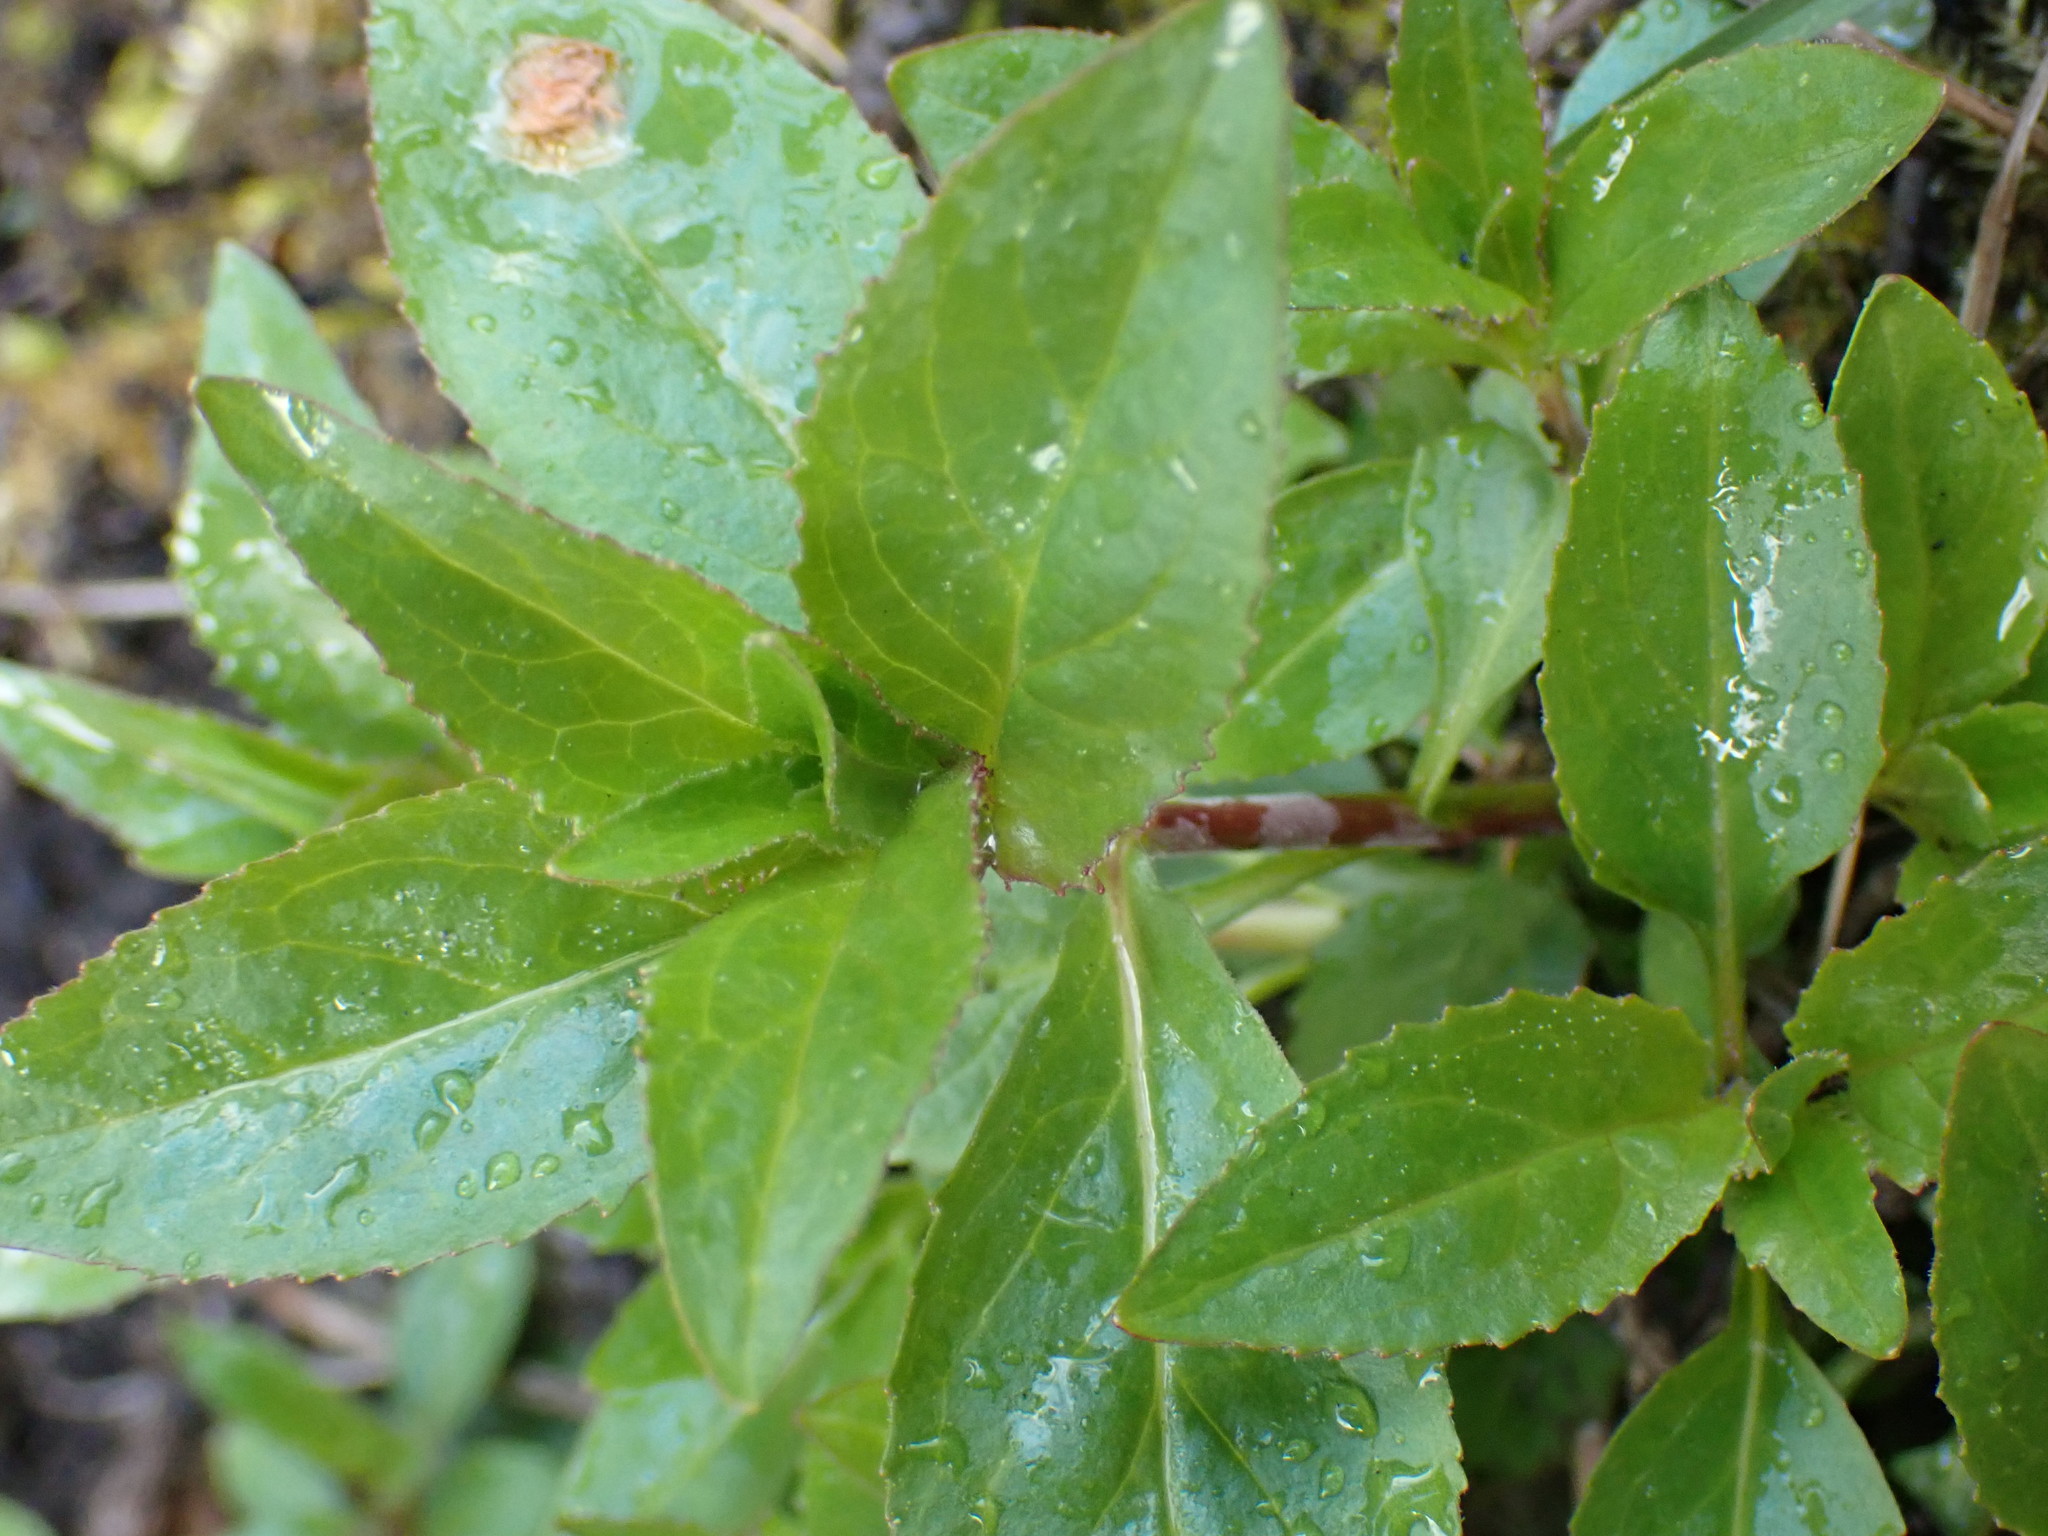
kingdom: Plantae
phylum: Tracheophyta
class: Magnoliopsida
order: Lamiales
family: Plantaginaceae
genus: Penstemon
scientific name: Penstemon serrulatus
